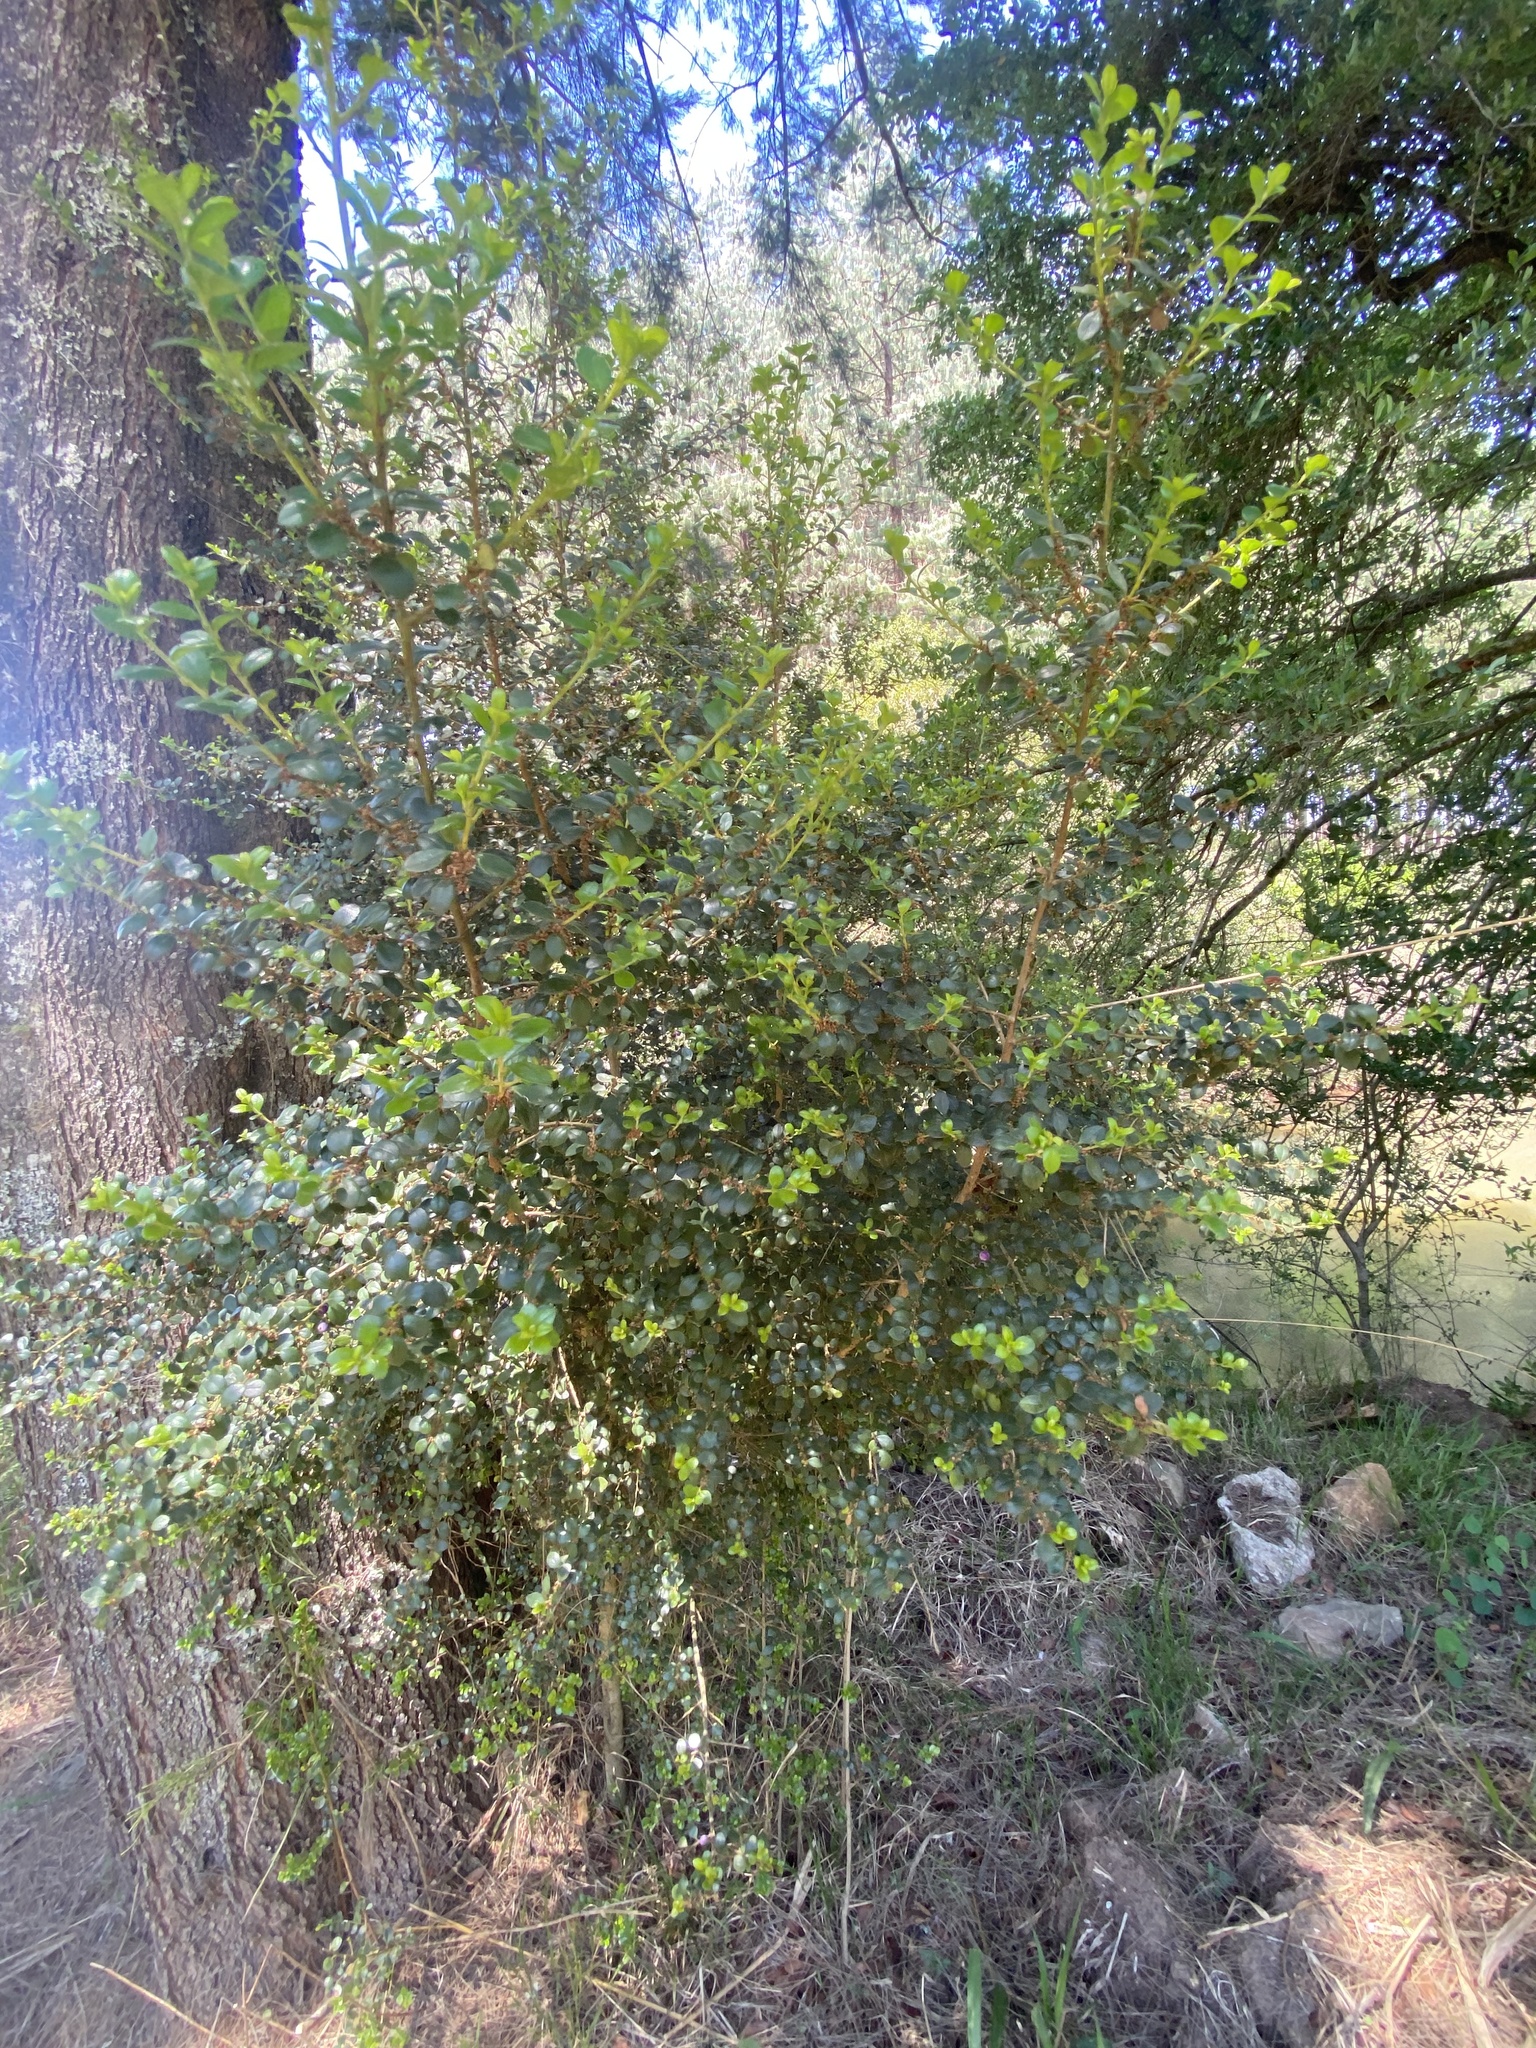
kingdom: Plantae
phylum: Tracheophyta
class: Magnoliopsida
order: Ericales
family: Primulaceae
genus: Myrsine
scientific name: Myrsine africana
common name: African-boxwood
